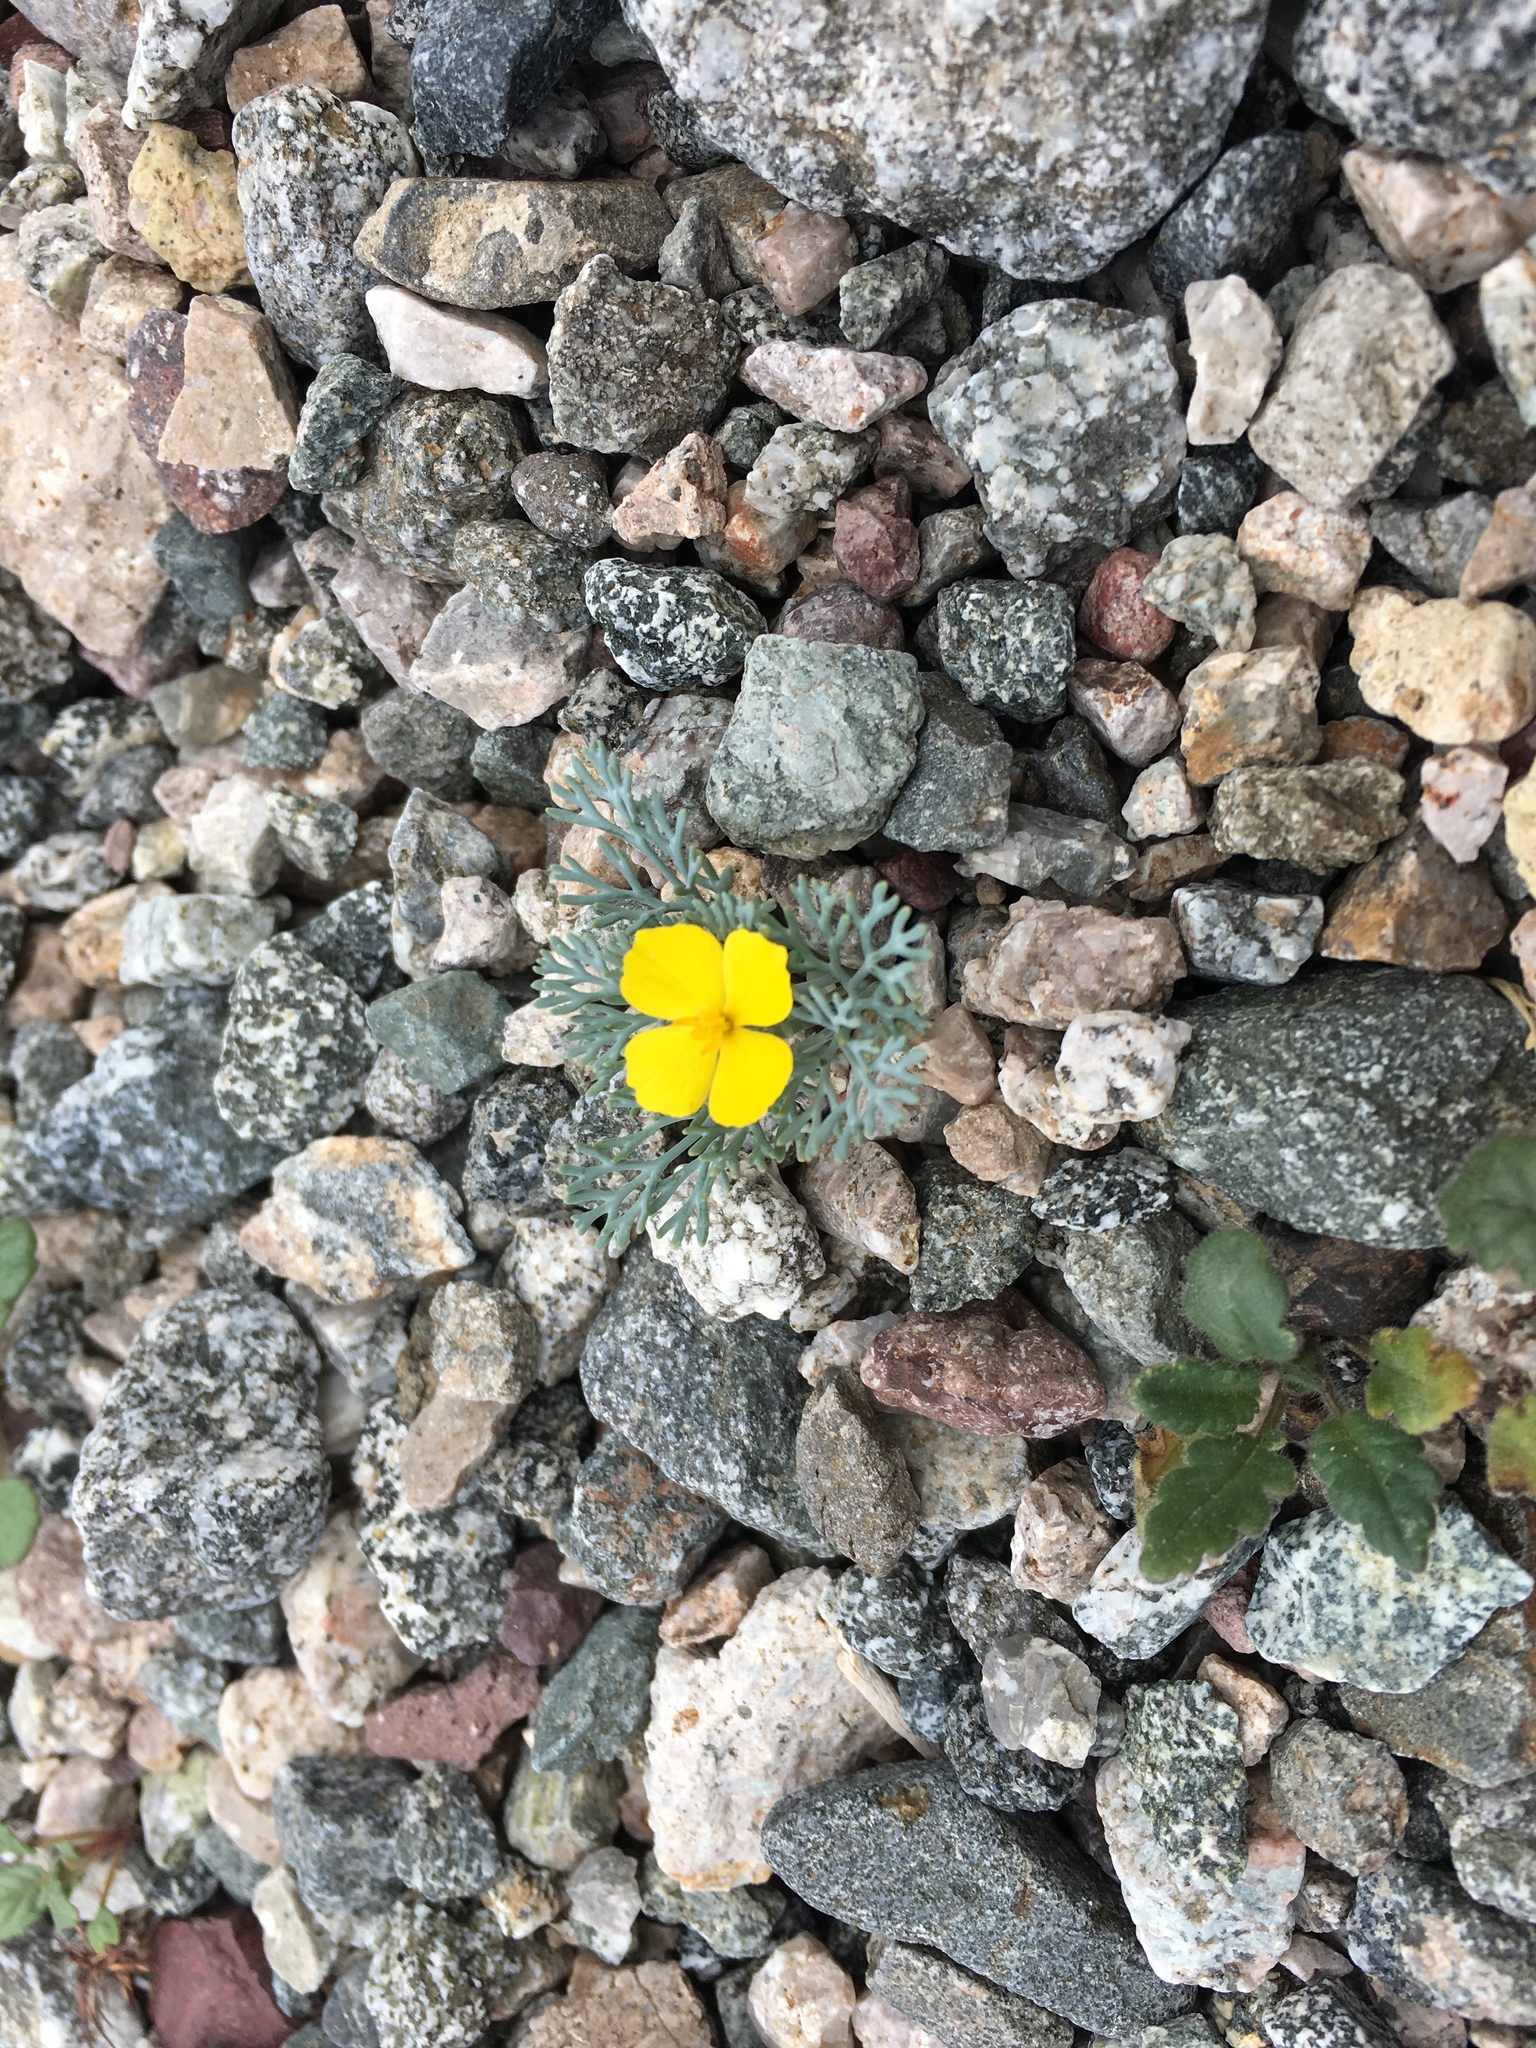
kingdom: Plantae
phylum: Tracheophyta
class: Magnoliopsida
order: Ranunculales
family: Papaveraceae
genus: Eschscholzia
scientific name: Eschscholzia minutiflora
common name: Small-flower california-poppy
